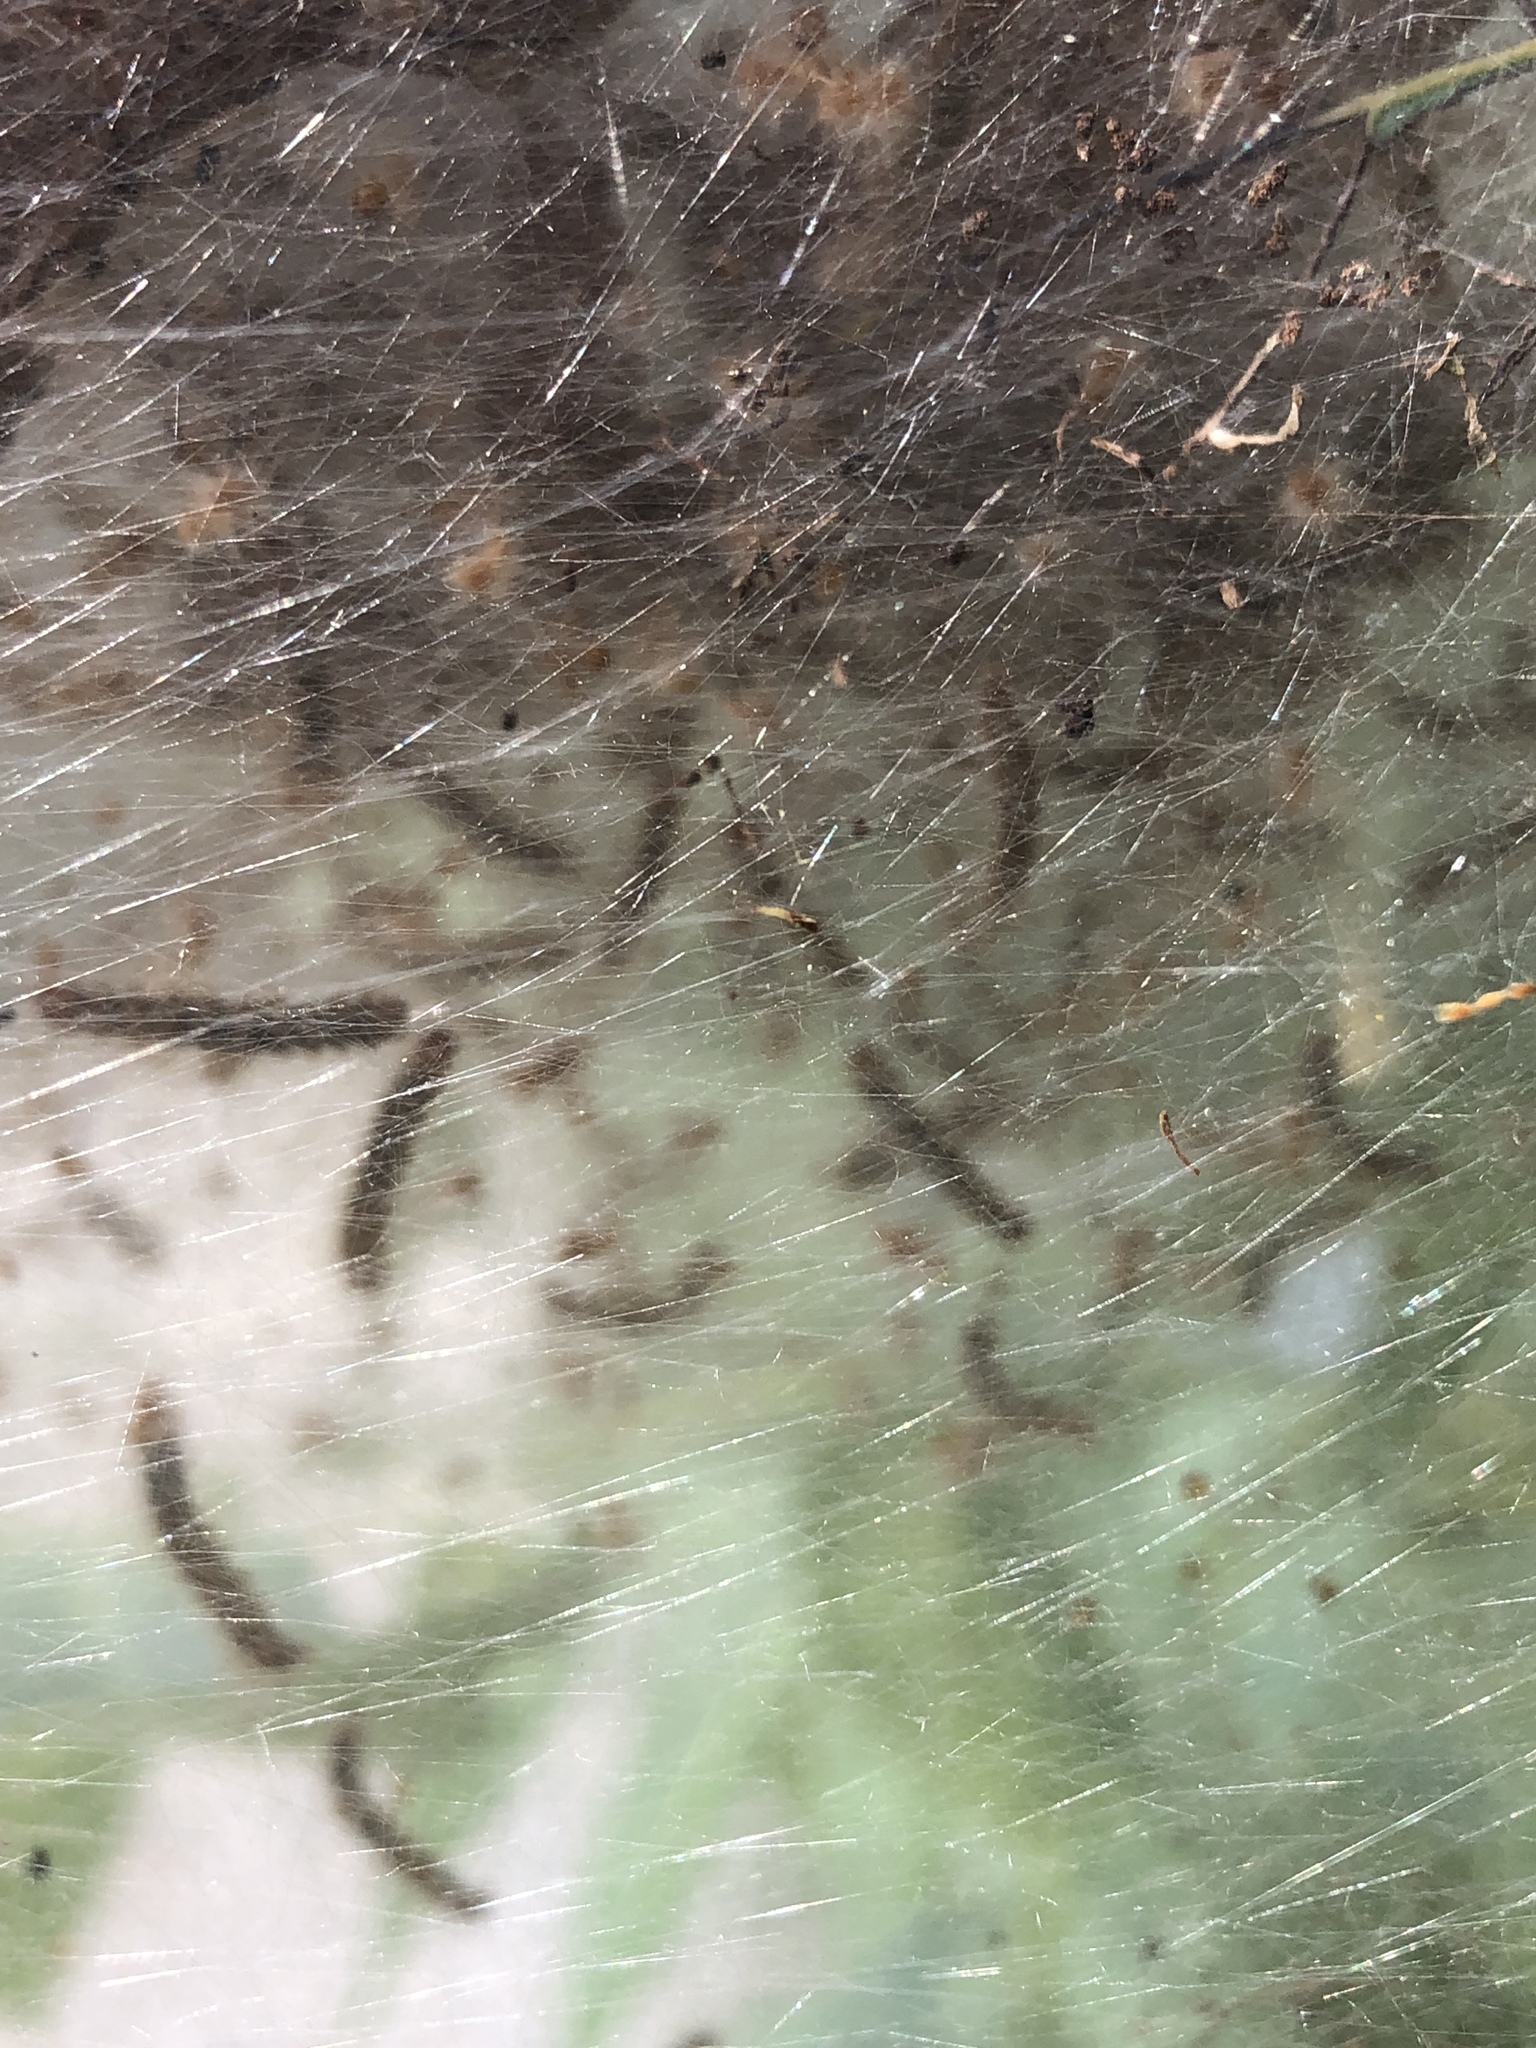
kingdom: Animalia
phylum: Arthropoda
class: Insecta
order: Lepidoptera
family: Erebidae
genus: Hyphantria
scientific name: Hyphantria cunea
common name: American white moth
